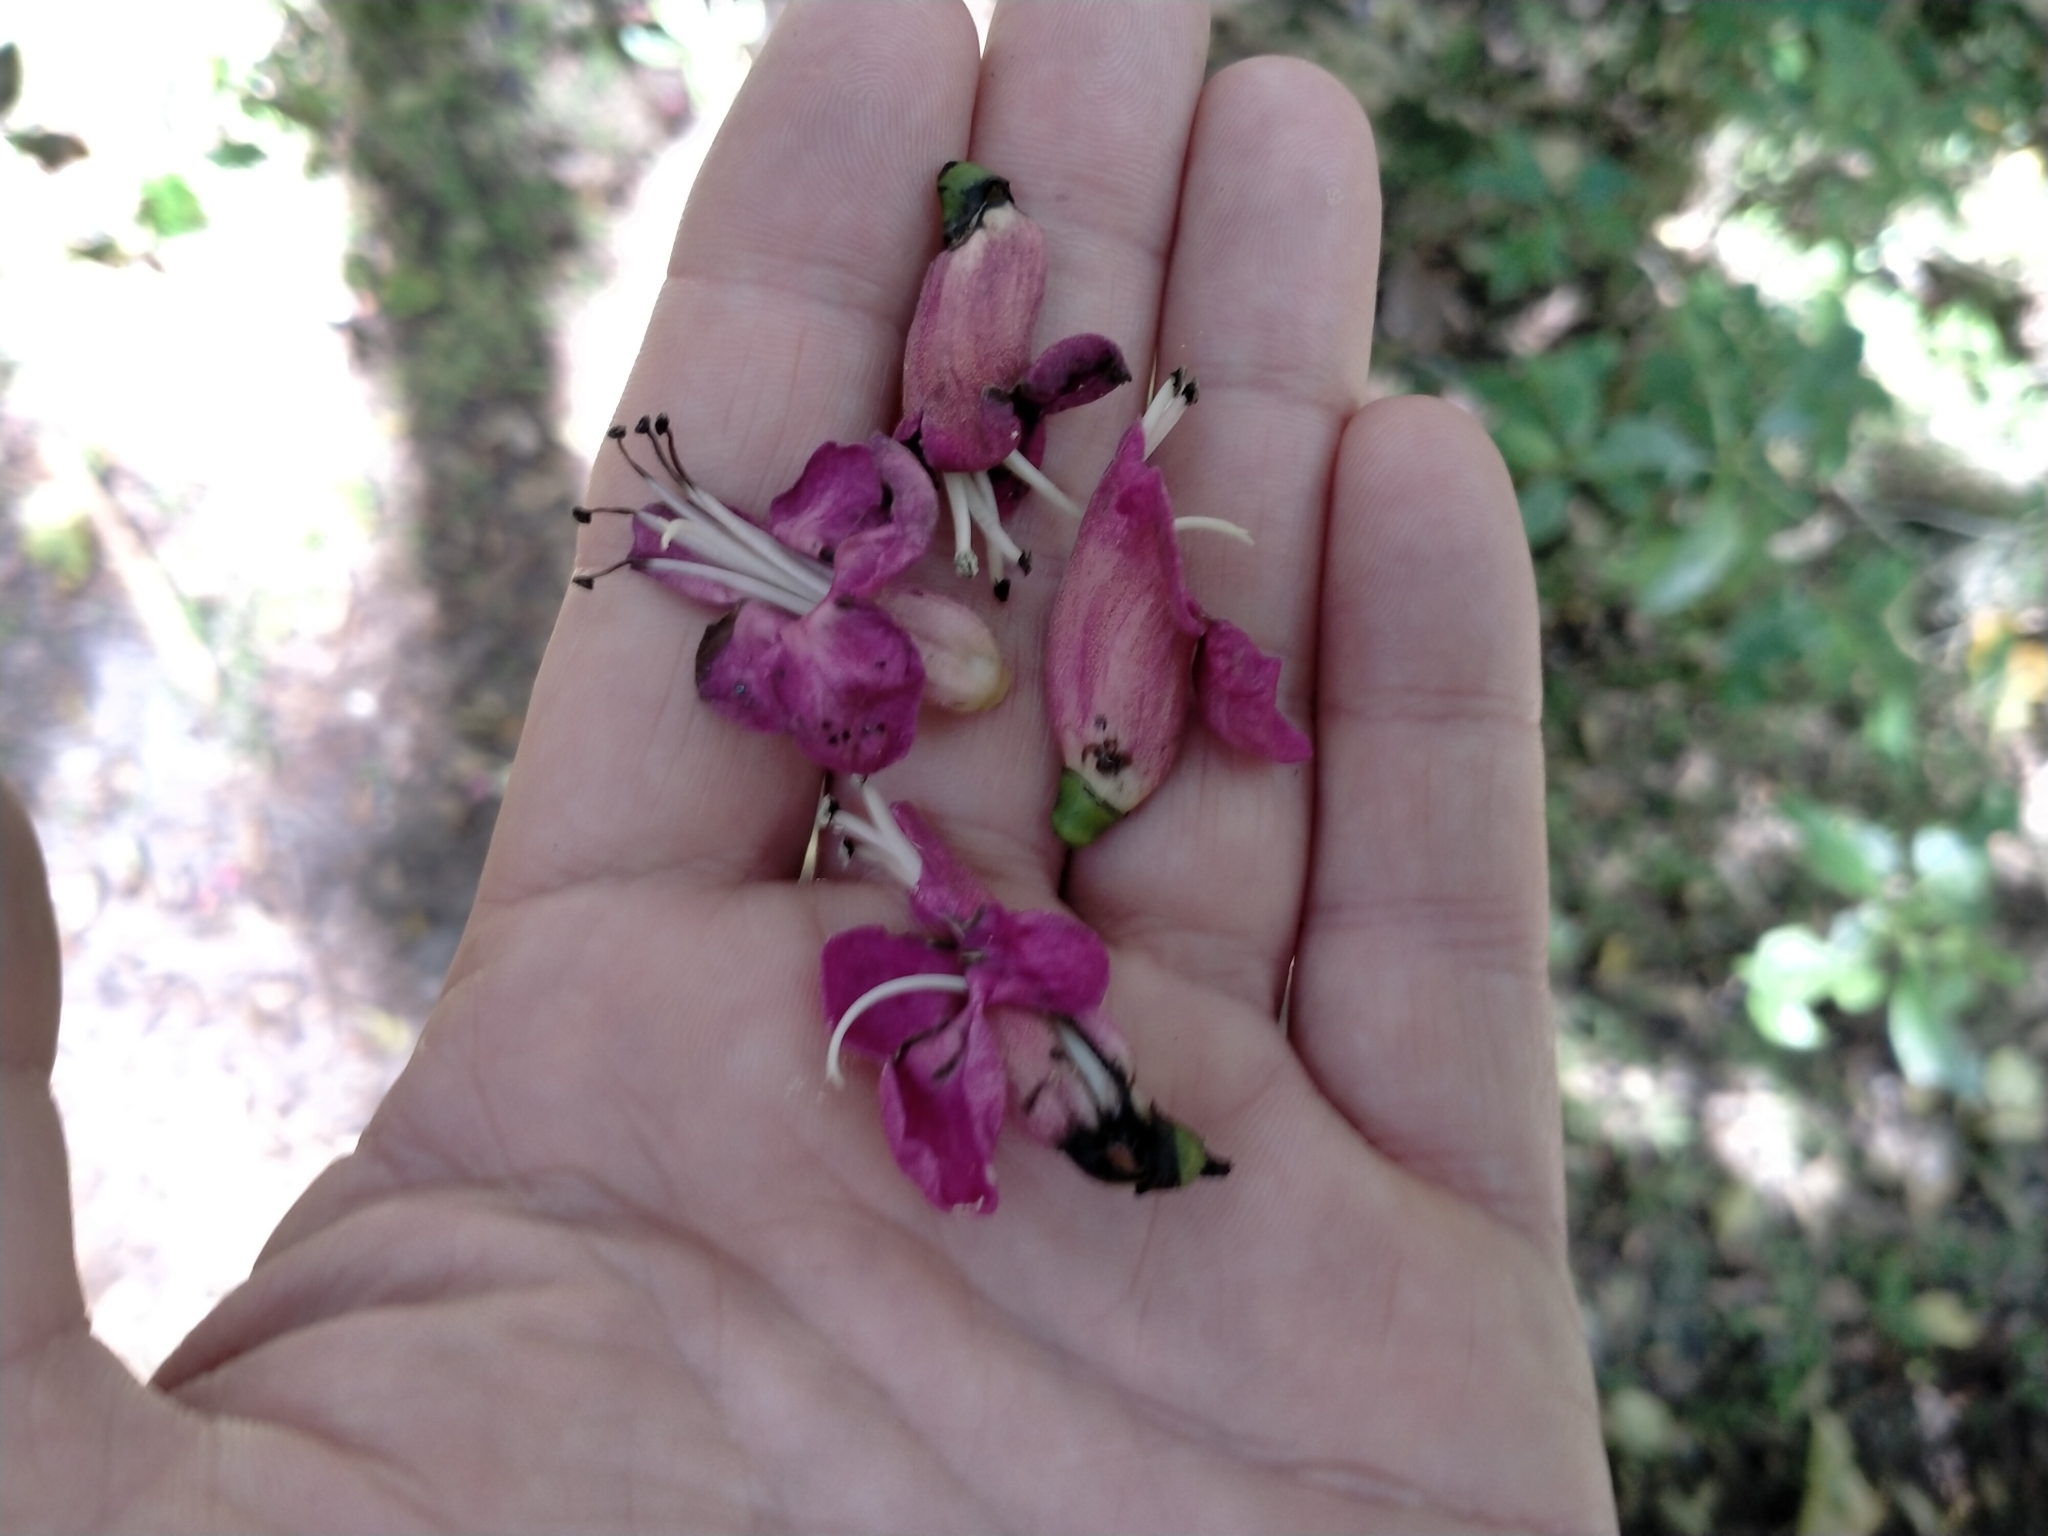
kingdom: Plantae
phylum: Tracheophyta
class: Magnoliopsida
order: Lamiales
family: Lamiaceae
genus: Vitex
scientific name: Vitex lucens
